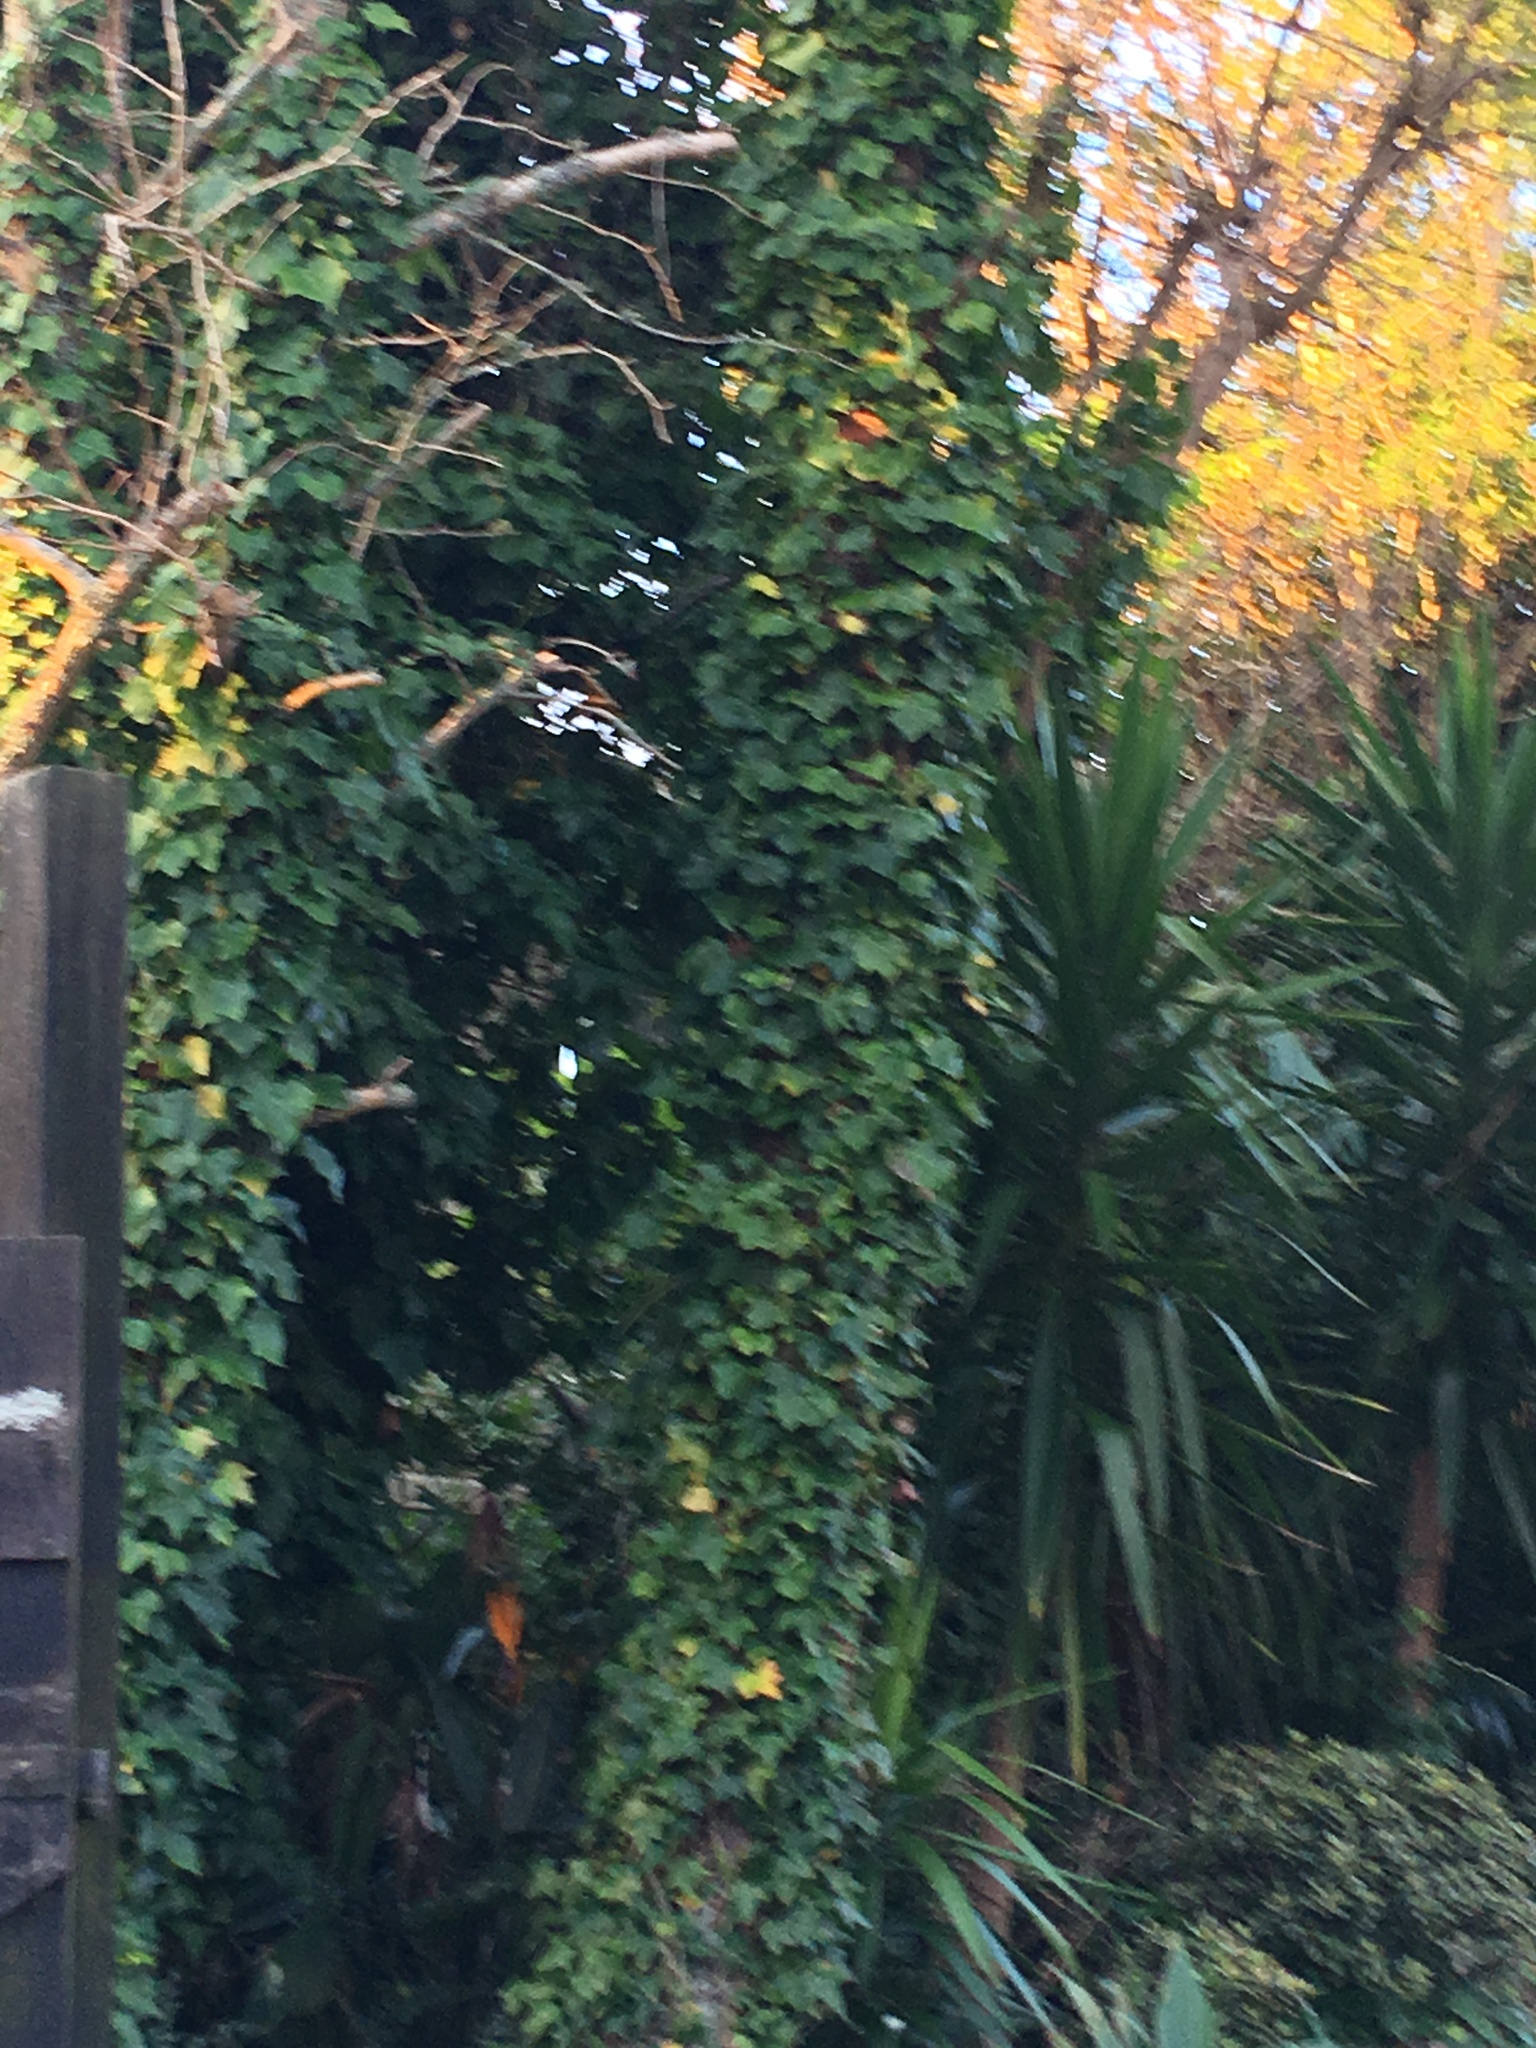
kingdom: Plantae
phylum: Tracheophyta
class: Magnoliopsida
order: Apiales
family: Araliaceae
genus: Hedera
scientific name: Hedera helix
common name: Ivy
